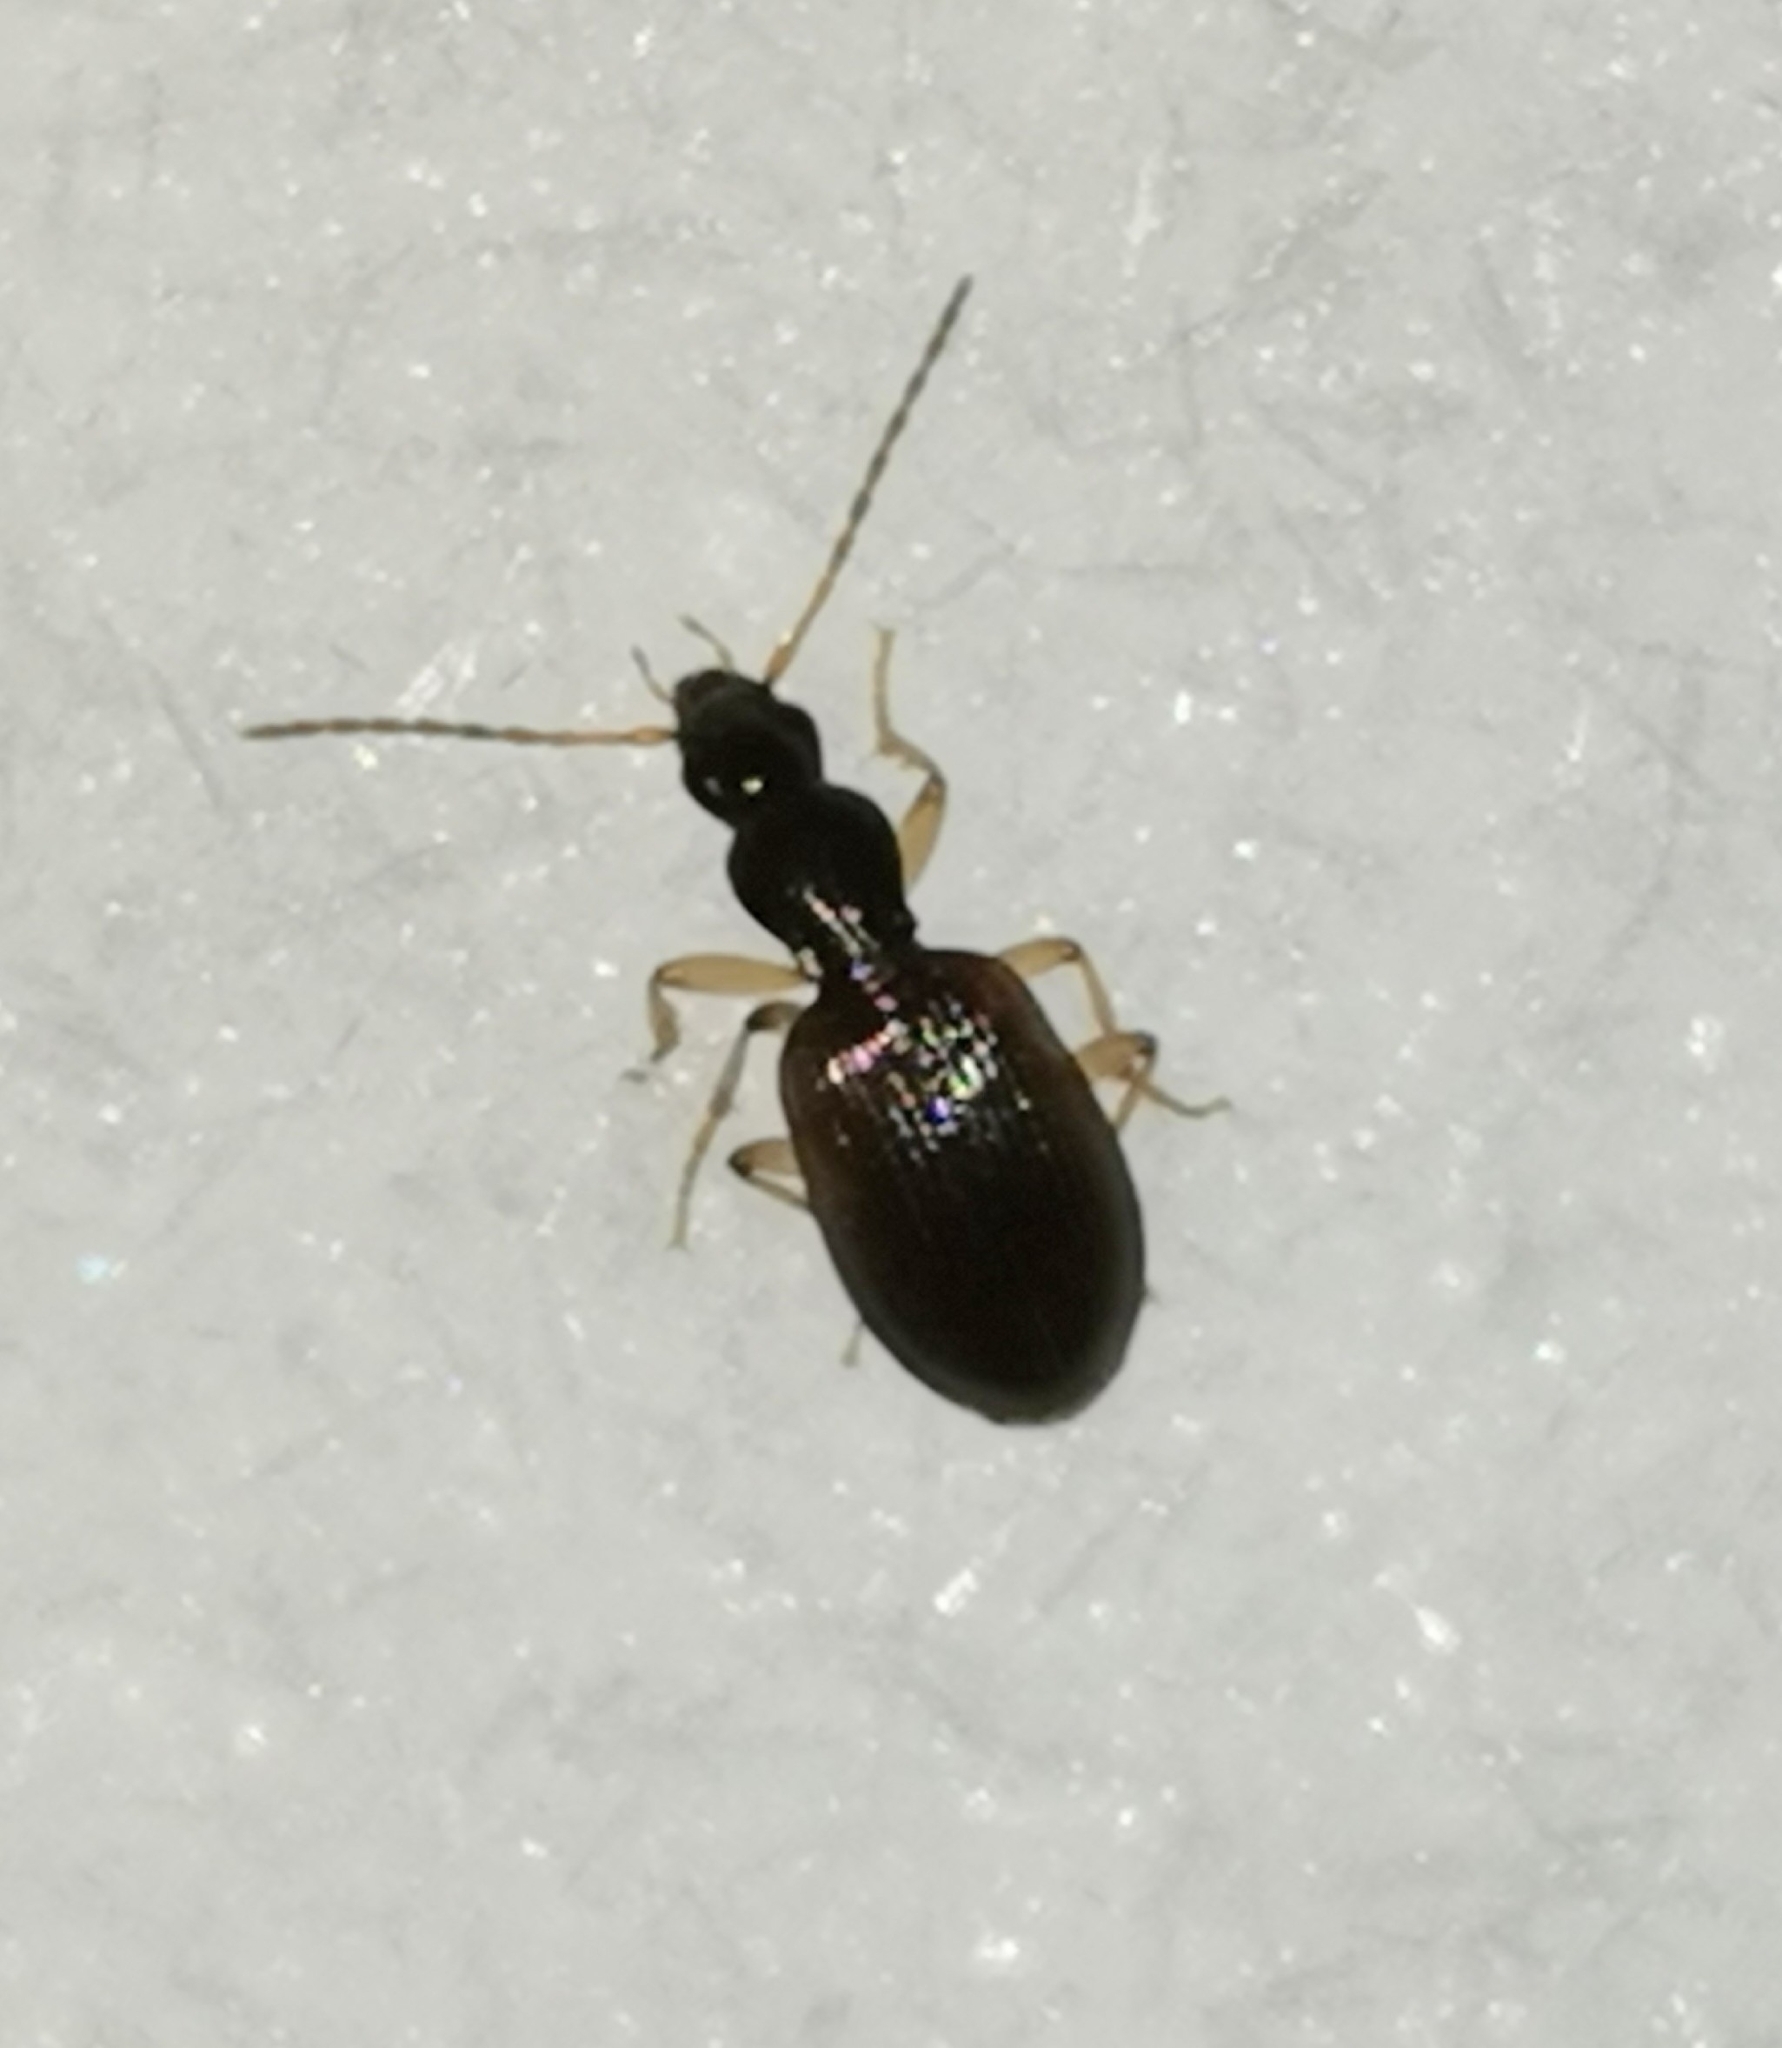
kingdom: Animalia
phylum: Arthropoda
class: Insecta
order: Coleoptera
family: Carabidae
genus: Oxypselaphus
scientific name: Oxypselaphus obscurus
